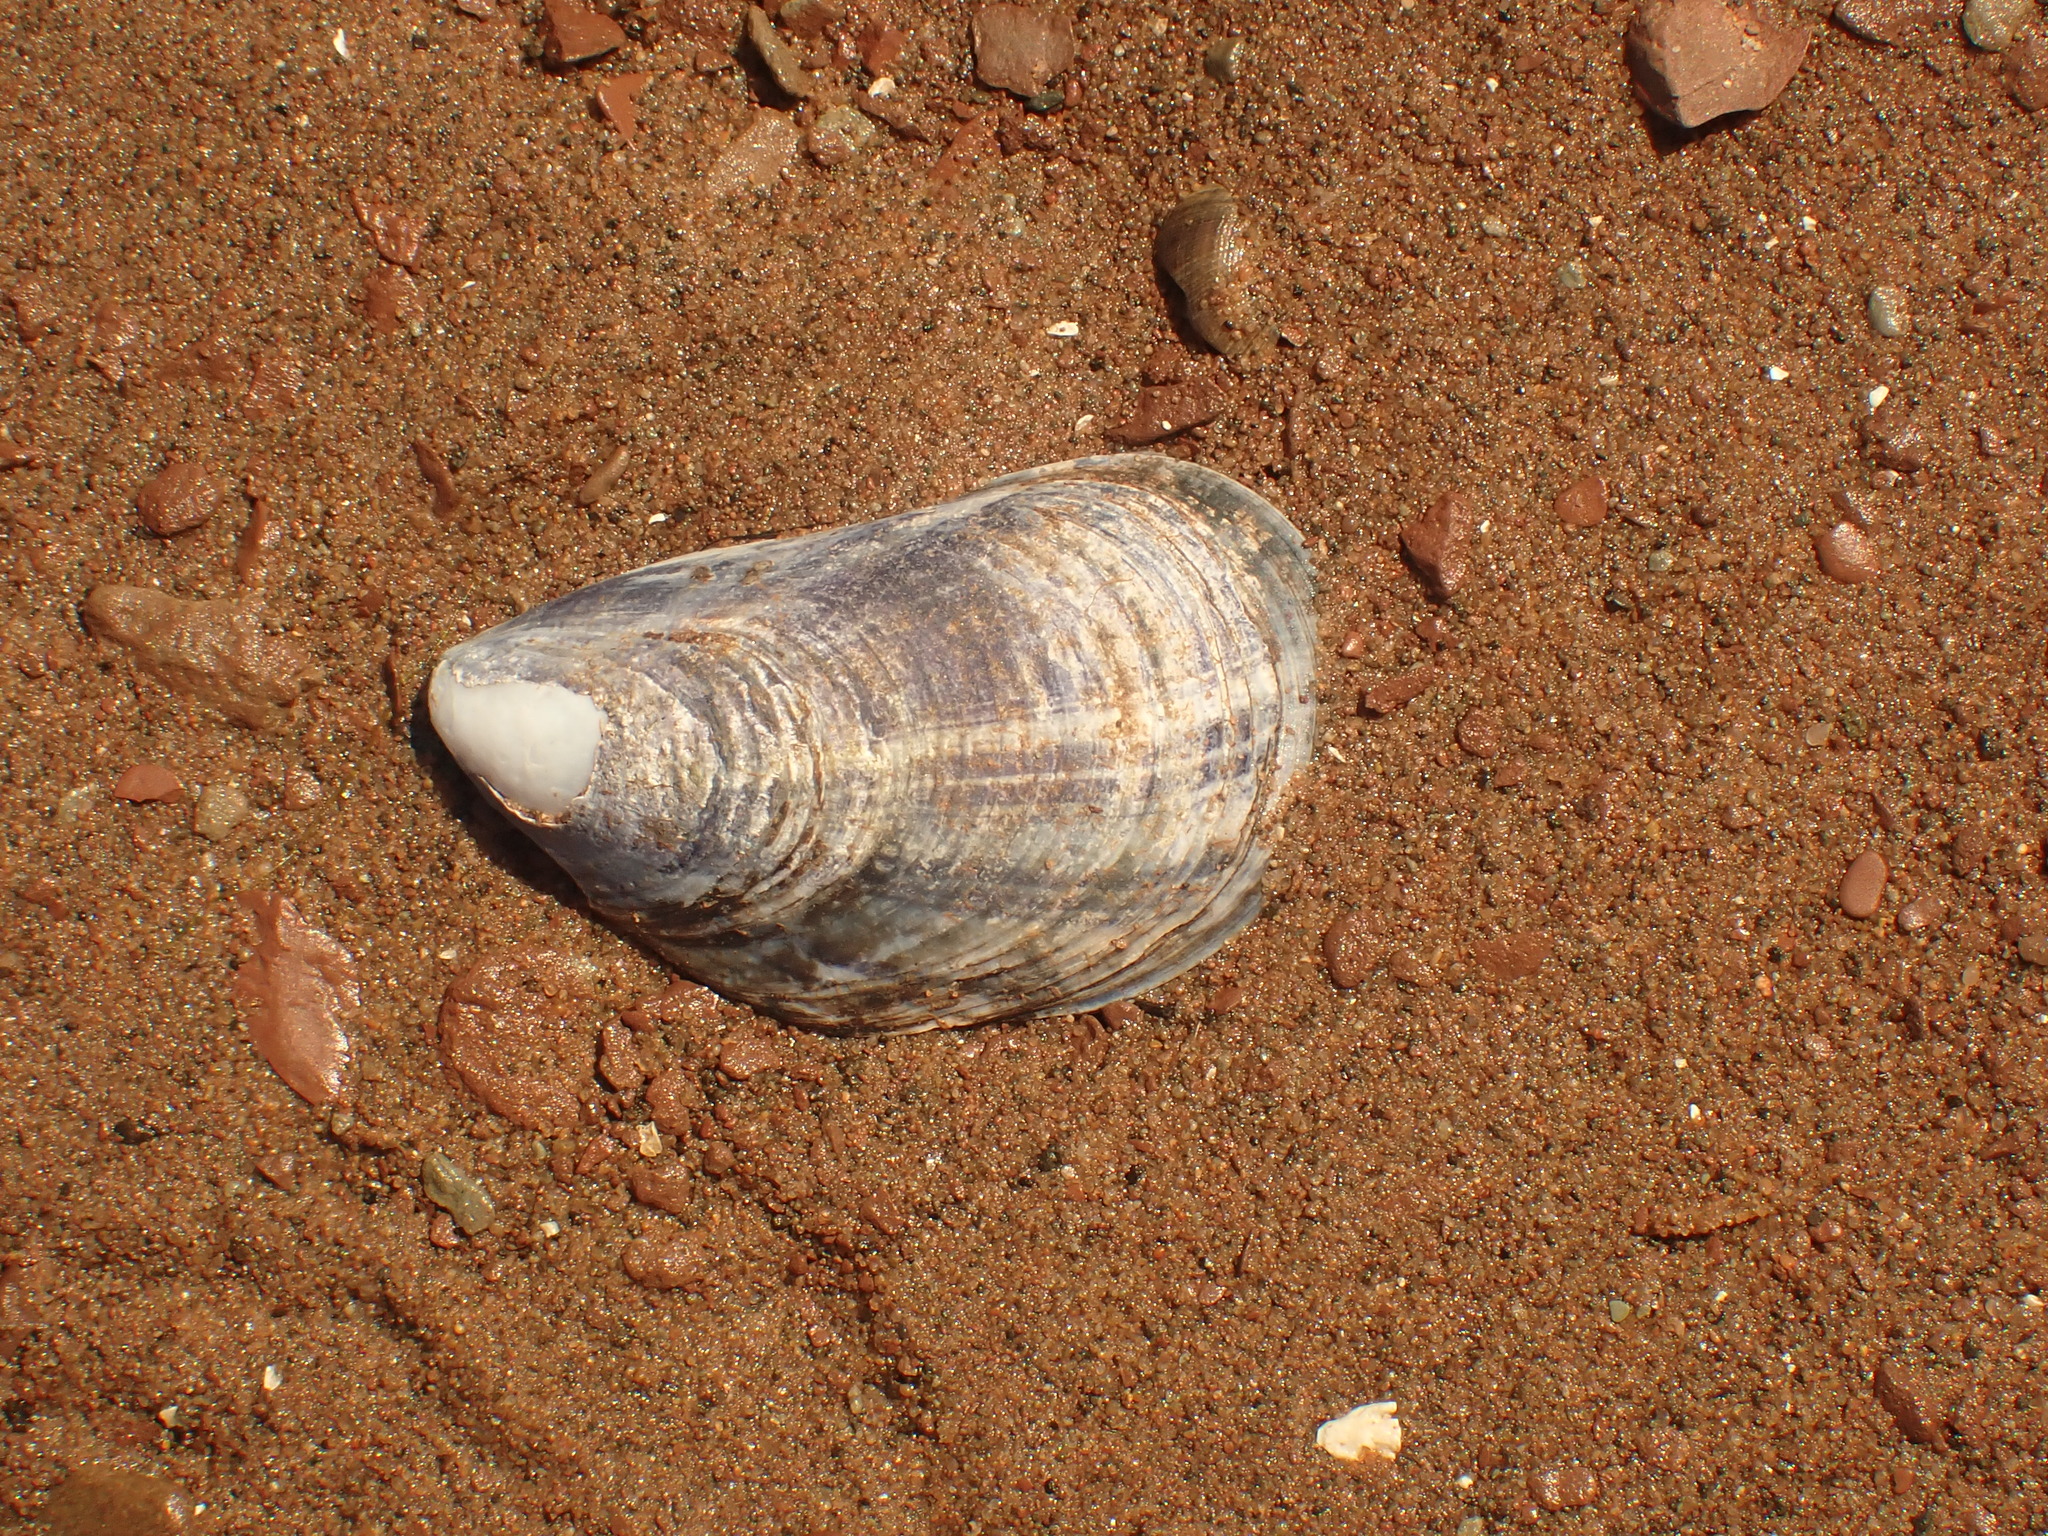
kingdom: Animalia
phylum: Mollusca
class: Bivalvia
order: Mytilida
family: Mytilidae
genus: Mytilus
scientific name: Mytilus edulis
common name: Blue mussel
